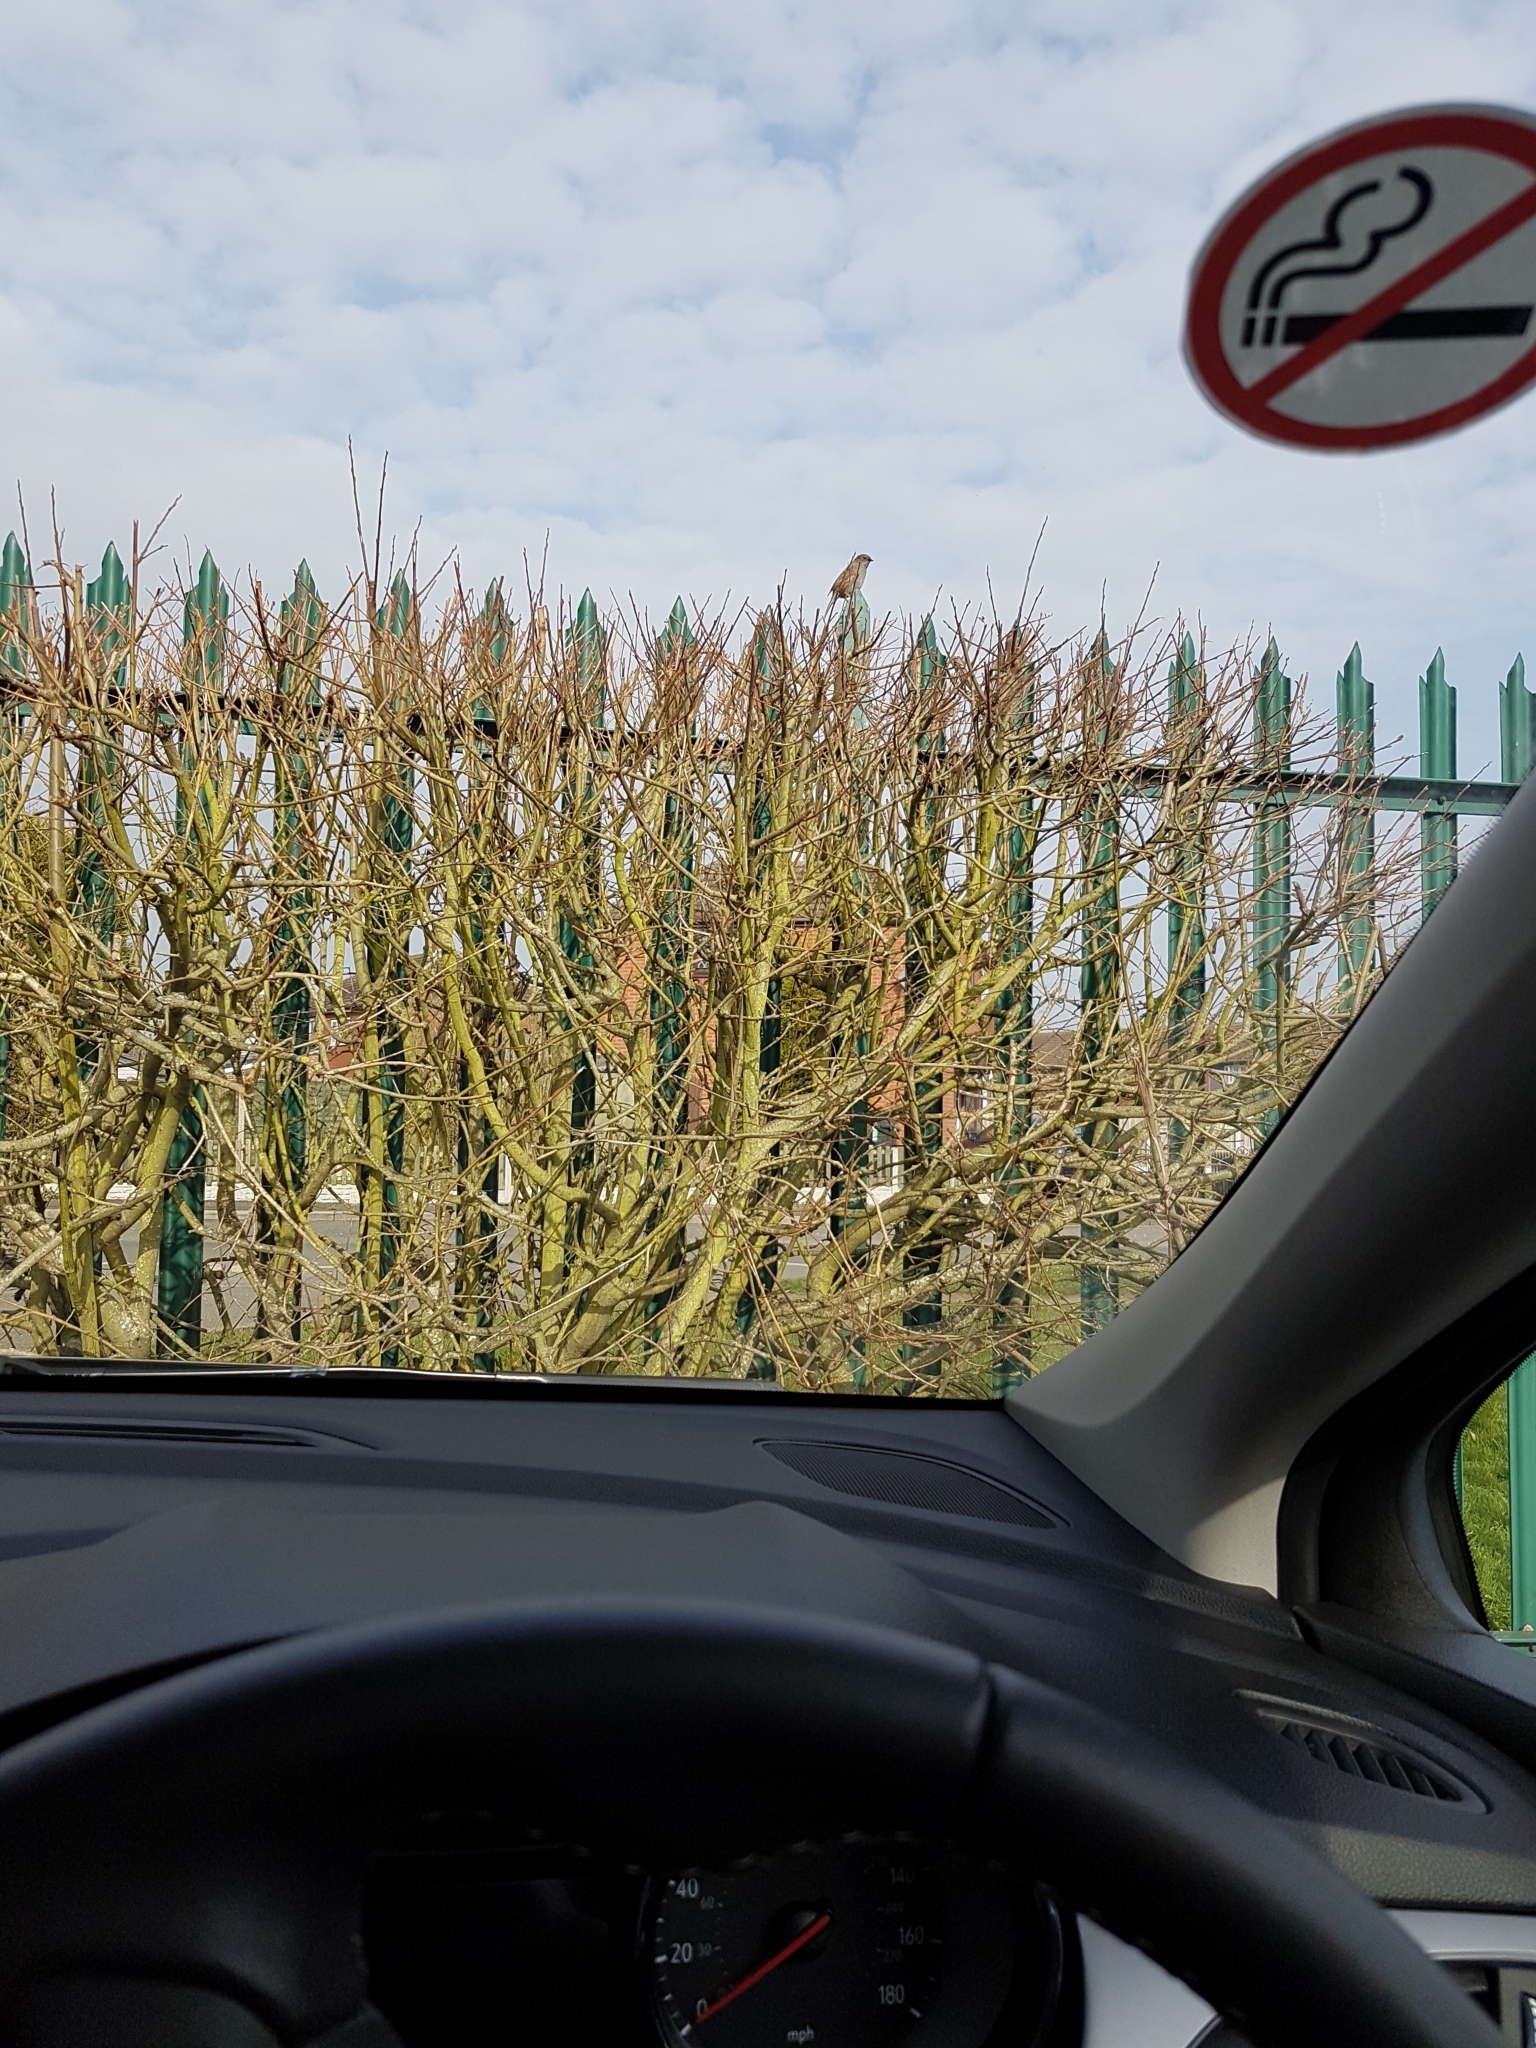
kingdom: Animalia
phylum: Chordata
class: Aves
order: Passeriformes
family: Prunellidae
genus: Prunella
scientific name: Prunella modularis
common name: Dunnock
